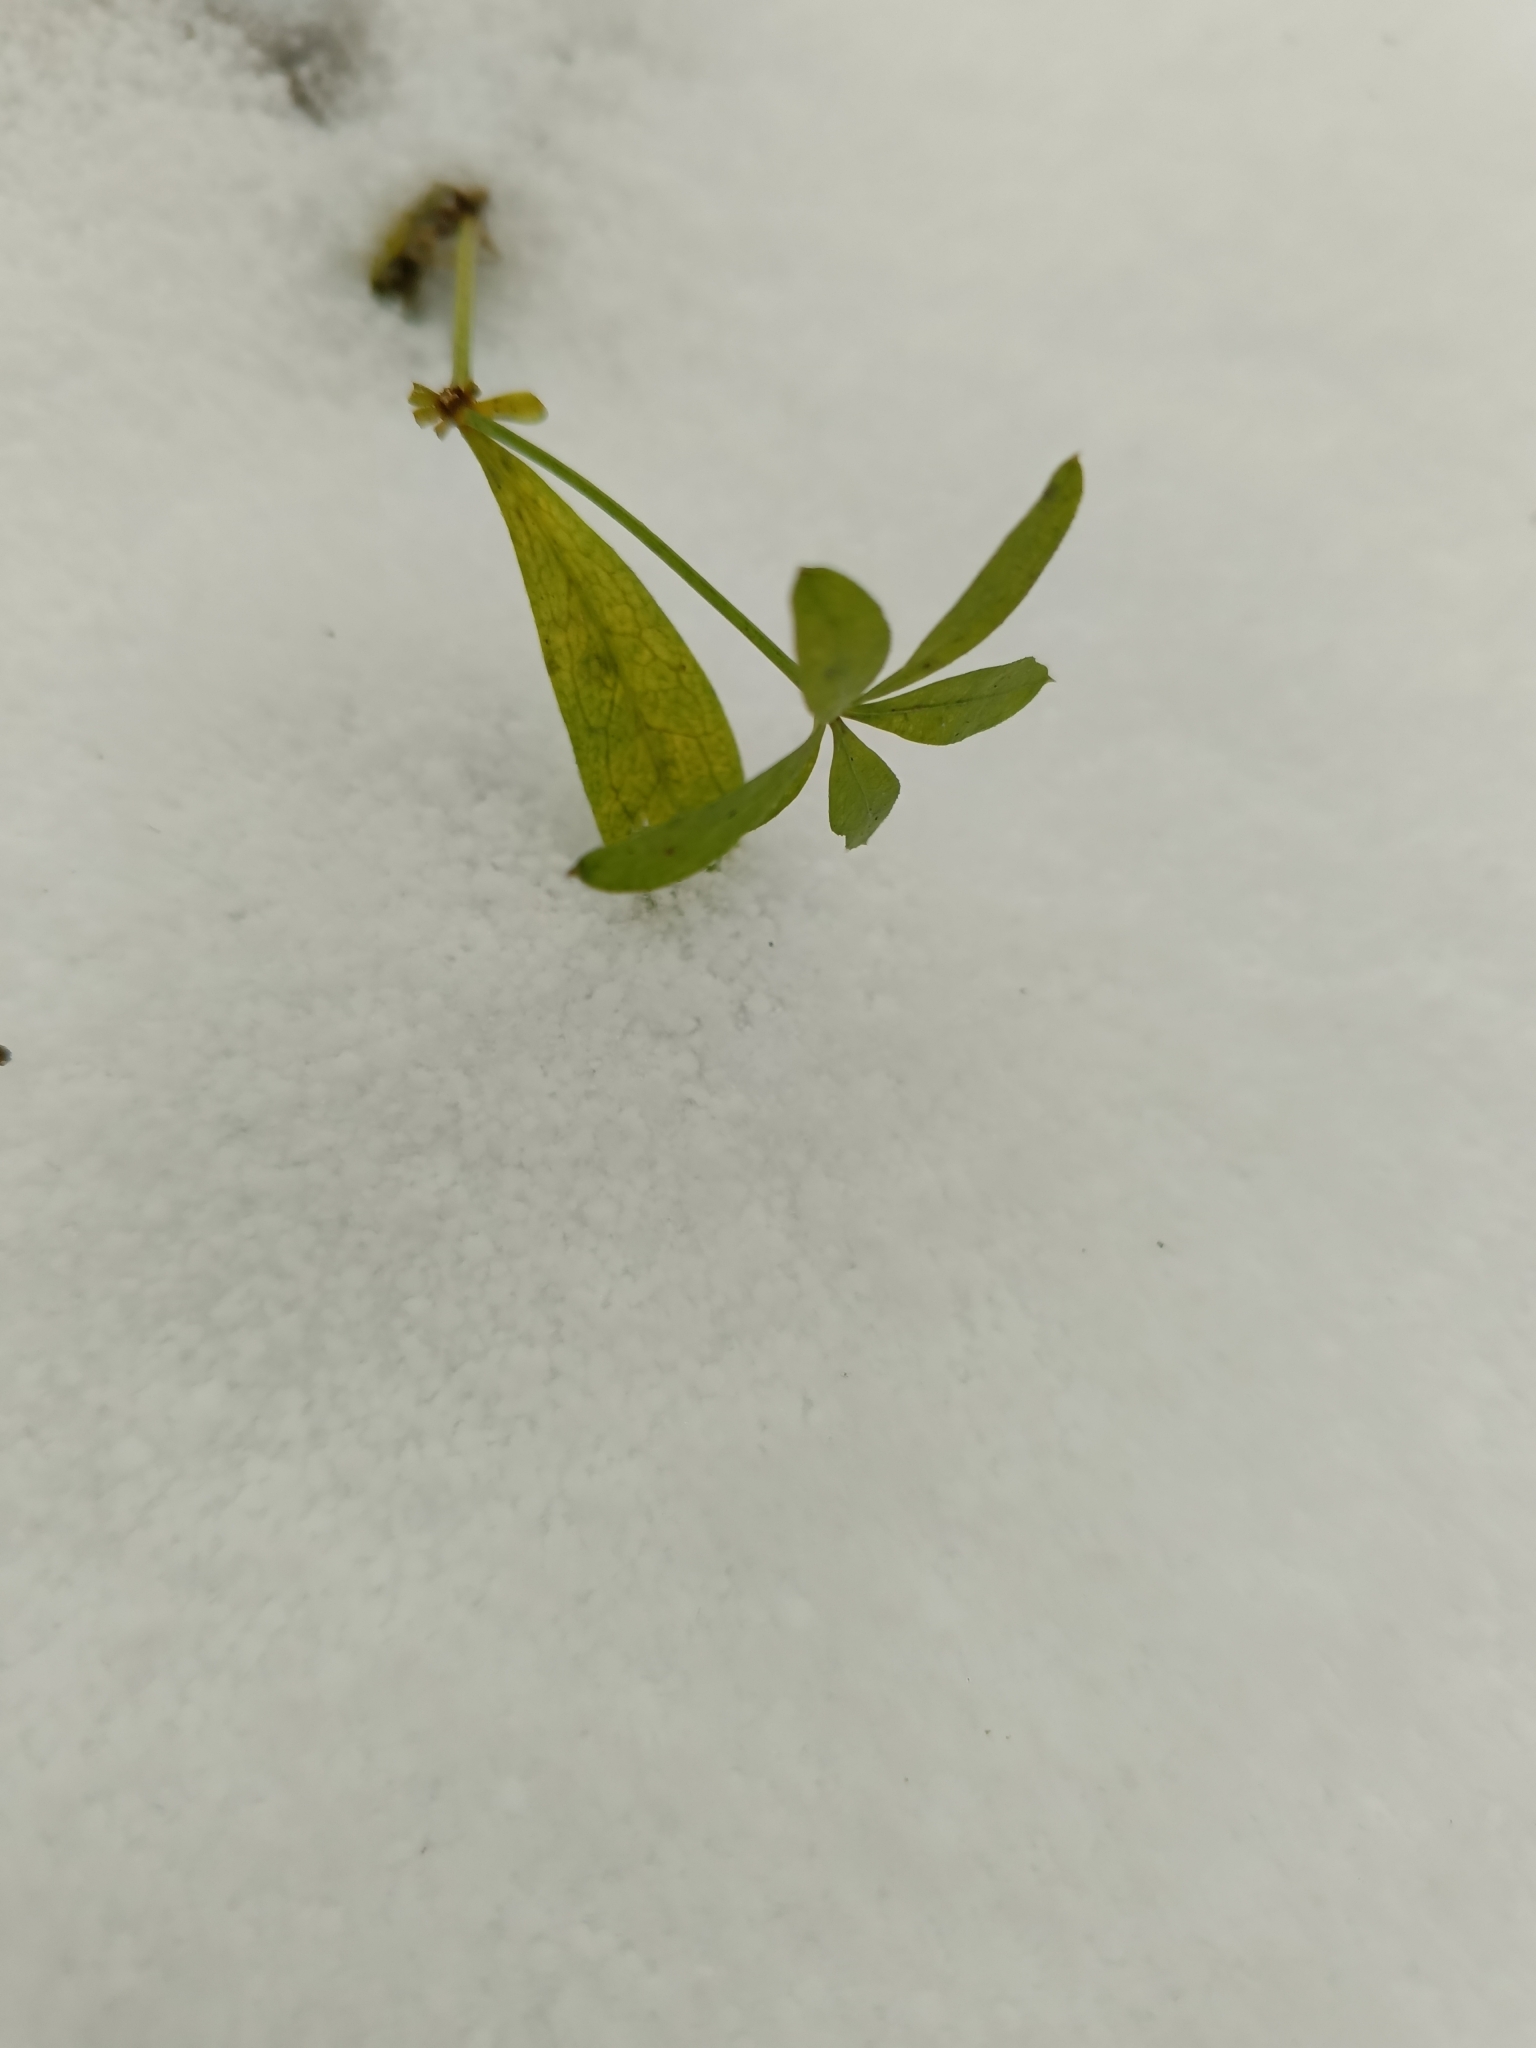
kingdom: Plantae
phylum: Tracheophyta
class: Magnoliopsida
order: Gentianales
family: Rubiaceae
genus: Galium
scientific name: Galium odoratum
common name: Sweet woodruff
